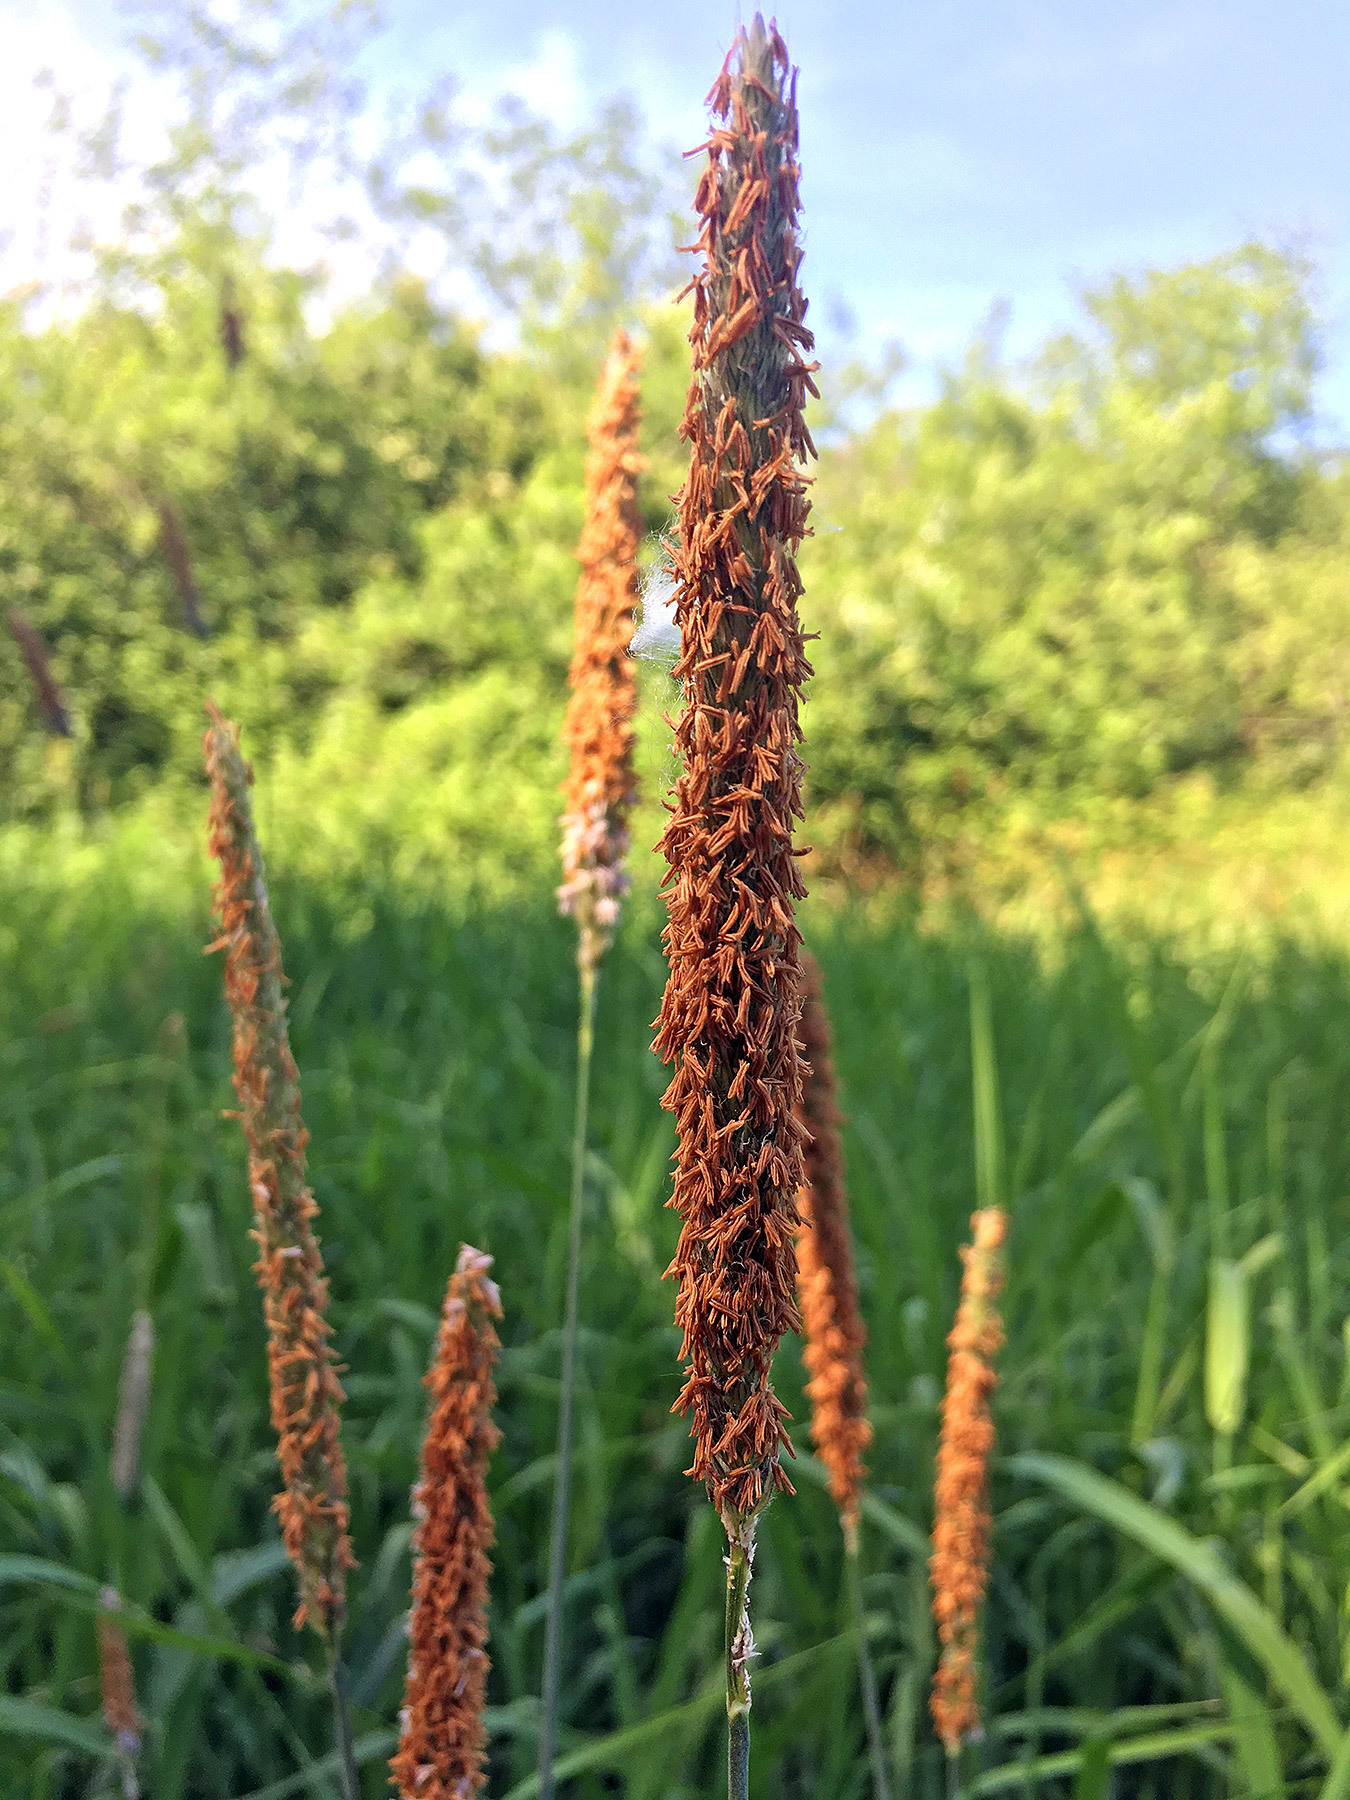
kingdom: Plantae
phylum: Tracheophyta
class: Liliopsida
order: Poales
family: Poaceae
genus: Alopecurus
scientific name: Alopecurus pratensis
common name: Meadow foxtail
